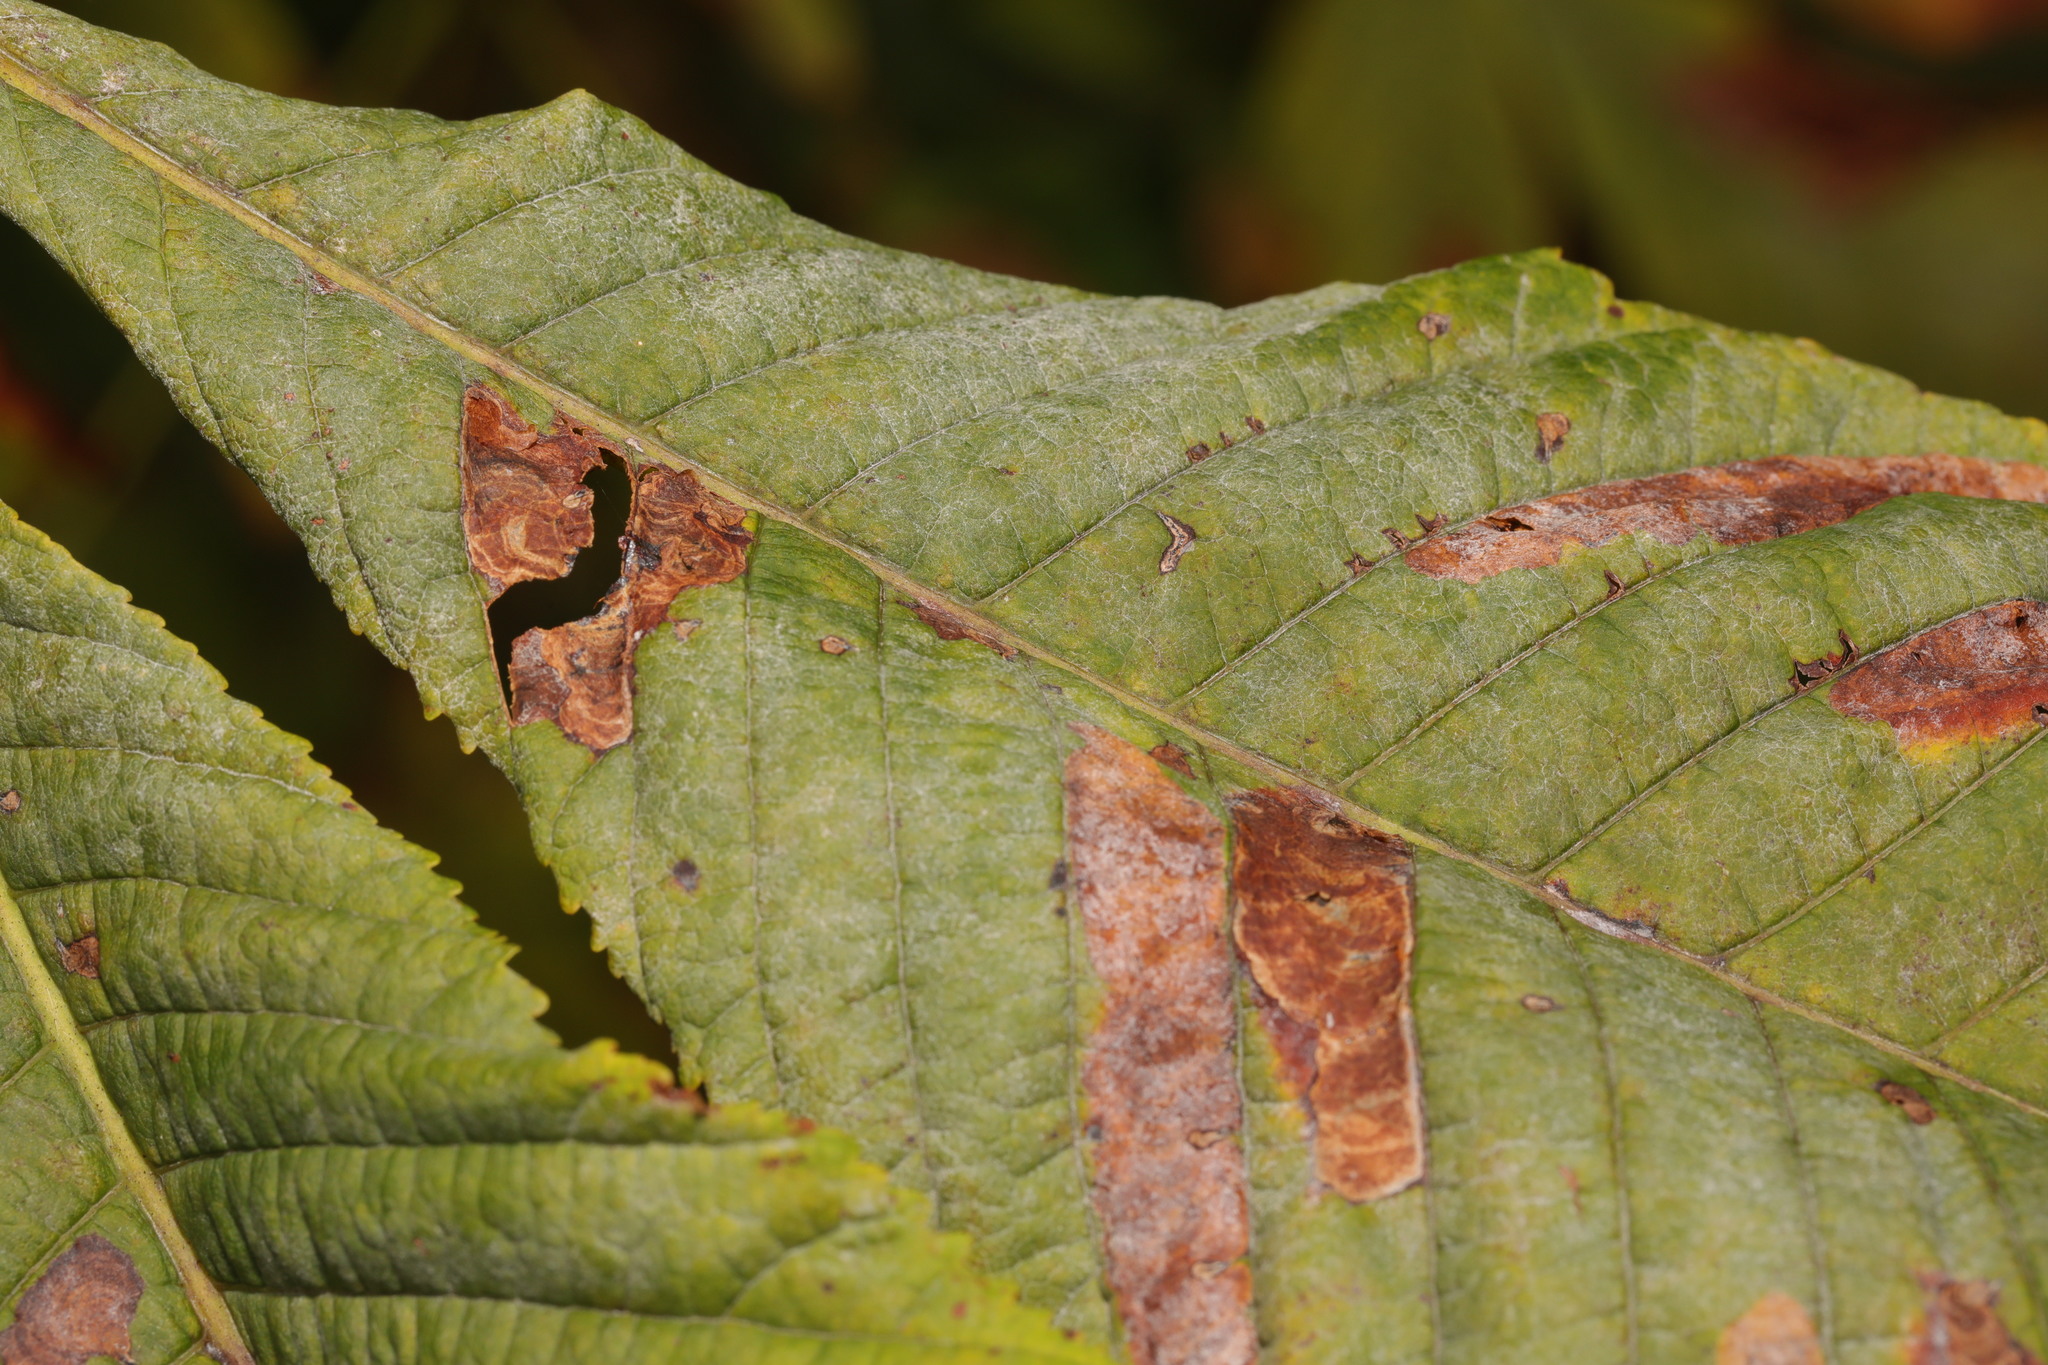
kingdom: Fungi
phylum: Ascomycota
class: Leotiomycetes
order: Helotiales
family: Erysiphaceae
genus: Erysiphe
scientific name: Erysiphe flexuosa
